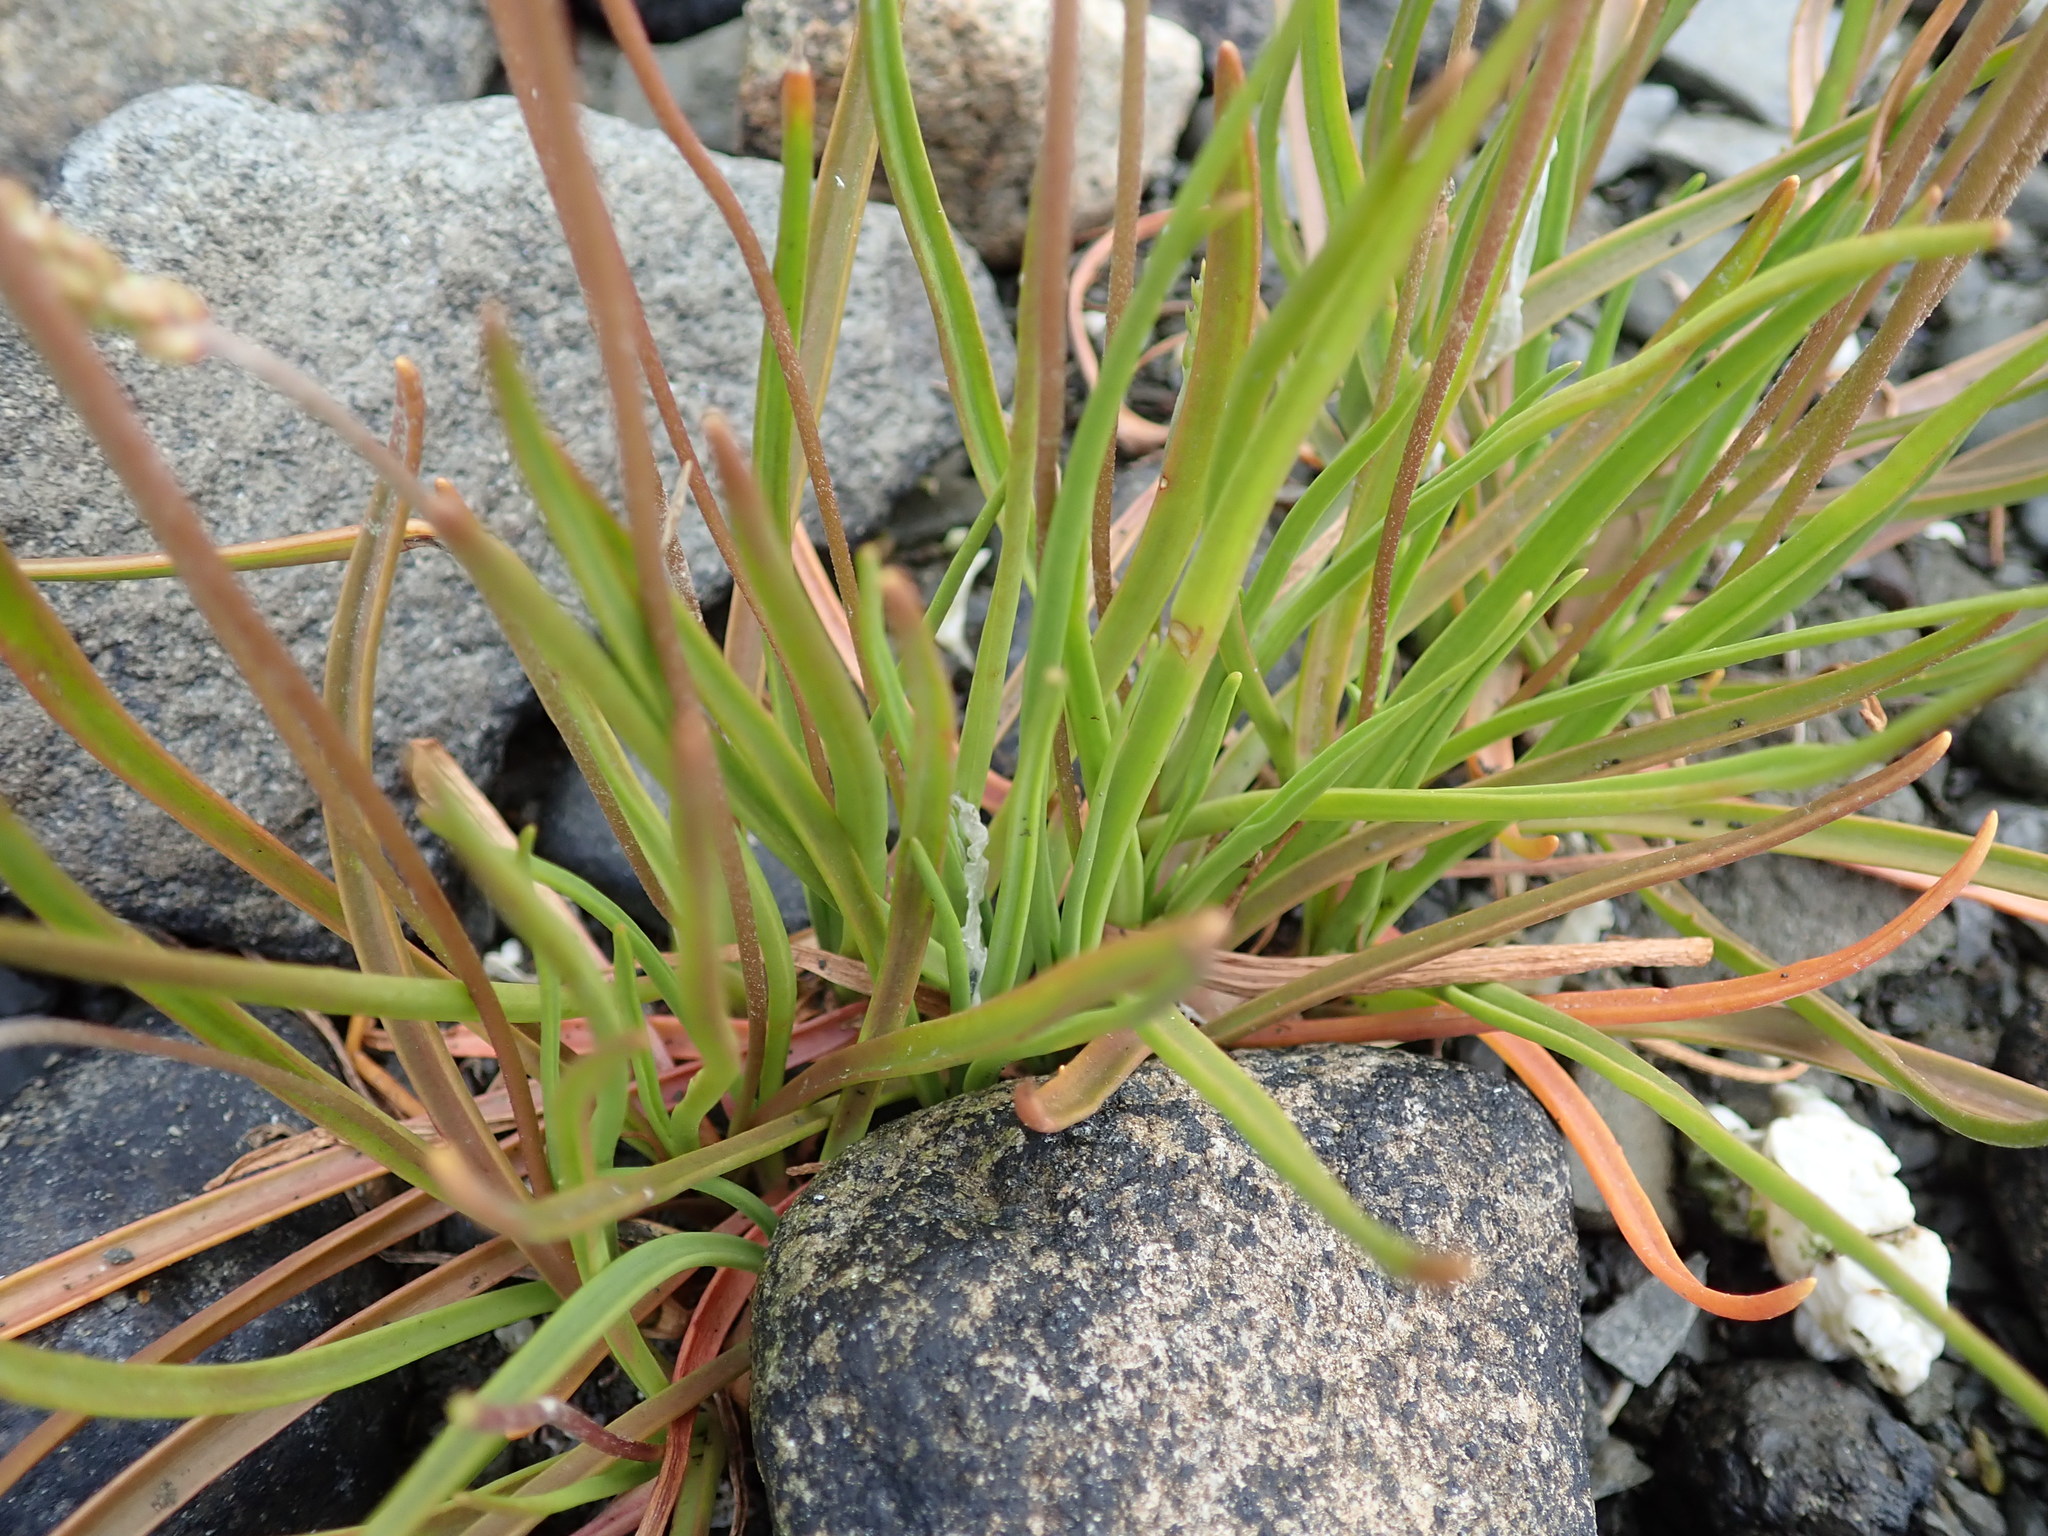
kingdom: Plantae
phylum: Tracheophyta
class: Magnoliopsida
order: Lamiales
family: Plantaginaceae
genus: Plantago
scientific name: Plantago maritima
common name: Sea plantain
